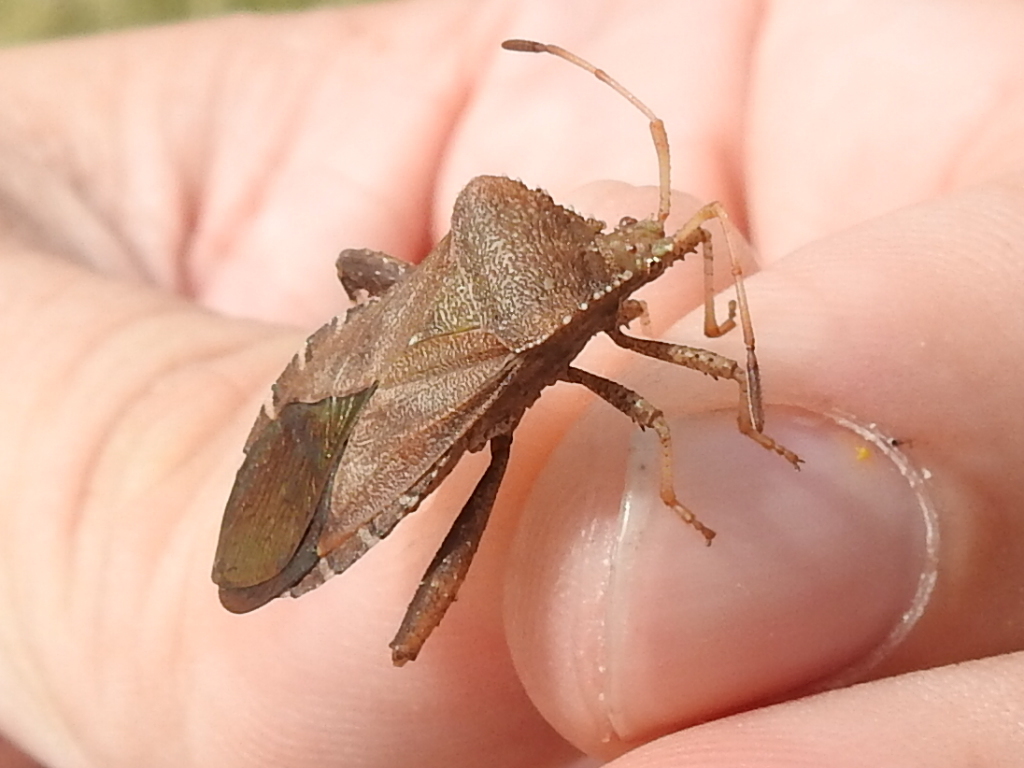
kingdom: Animalia
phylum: Arthropoda
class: Insecta
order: Hemiptera
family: Coreidae
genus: Euthochtha
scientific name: Euthochtha galeator
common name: Helmeted squash bug
